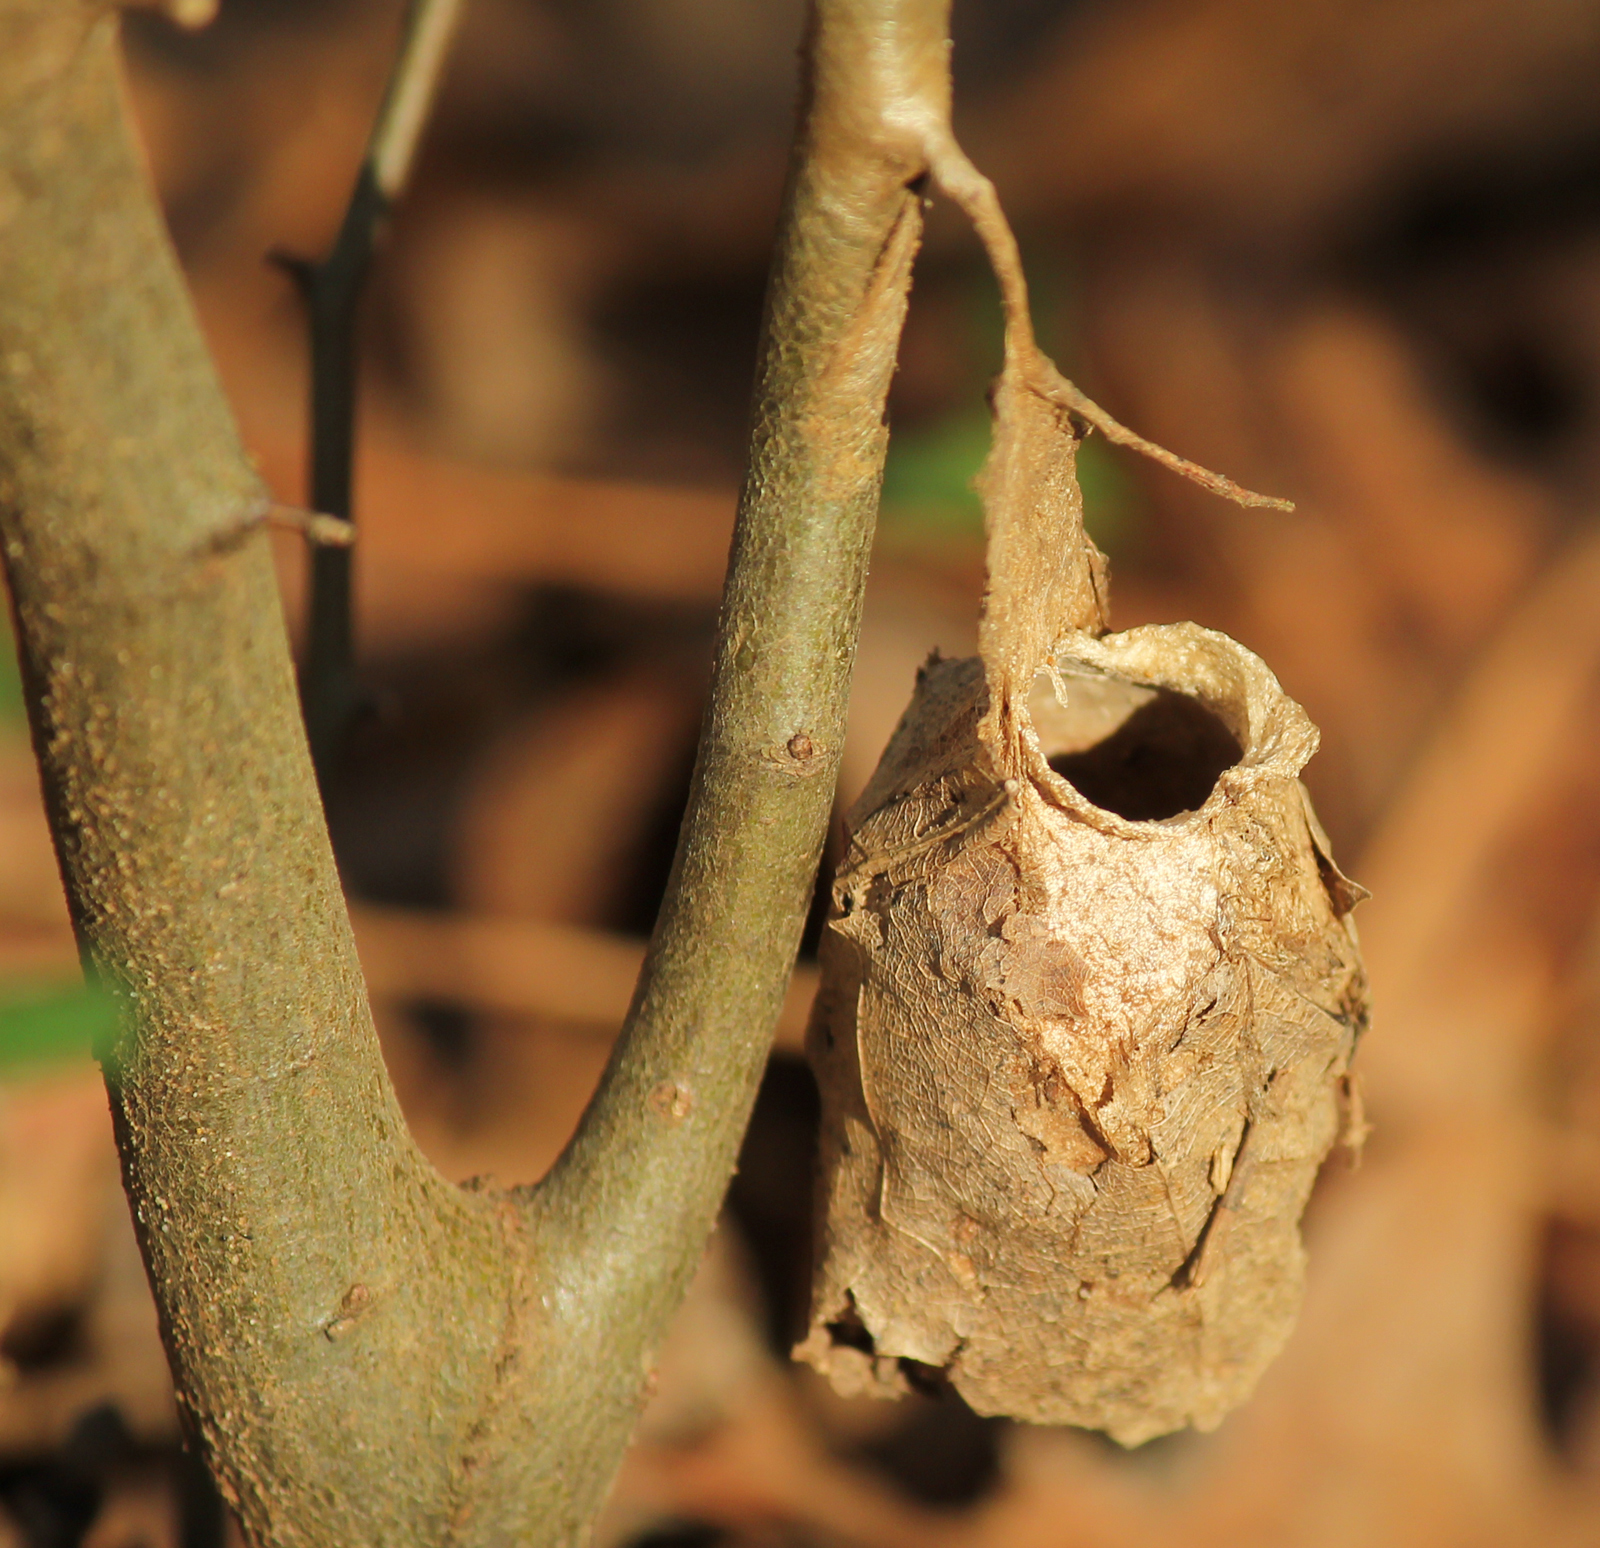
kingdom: Animalia
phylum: Arthropoda
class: Insecta
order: Lepidoptera
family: Saturniidae
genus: Antheraea
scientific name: Antheraea polyphemus
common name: Polyphemus moth
